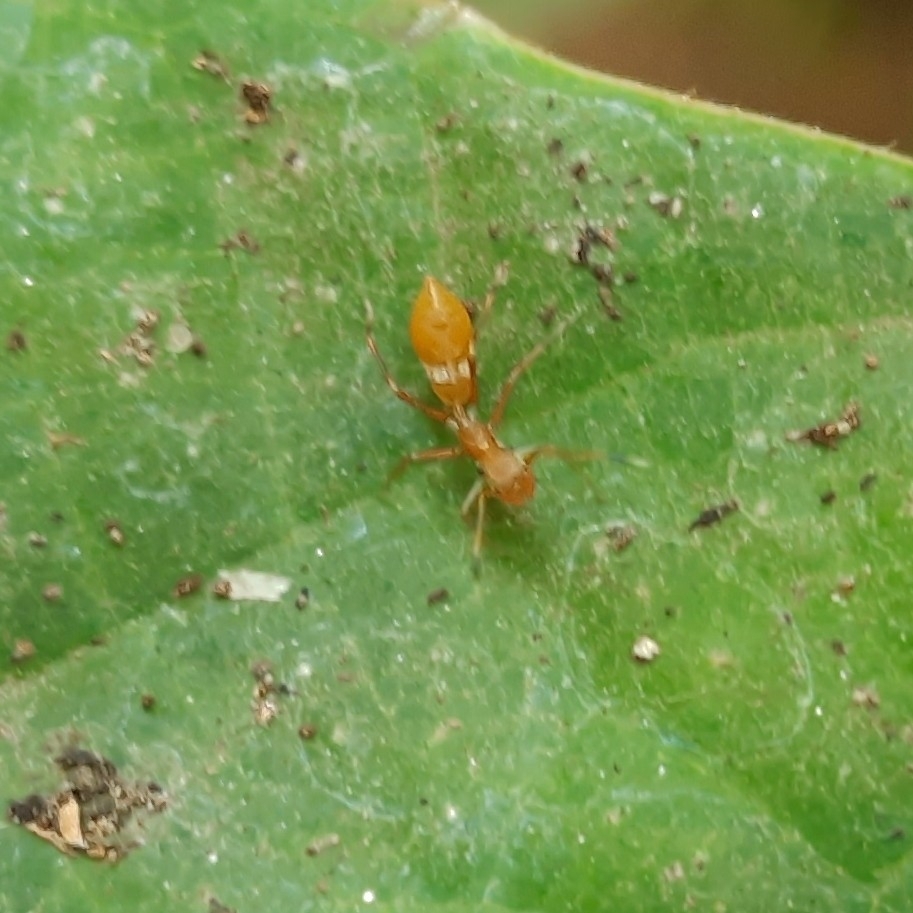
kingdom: Animalia
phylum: Arthropoda
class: Arachnida
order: Araneae
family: Salticidae
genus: Myrmaplata
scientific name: Myrmaplata plataleoides
